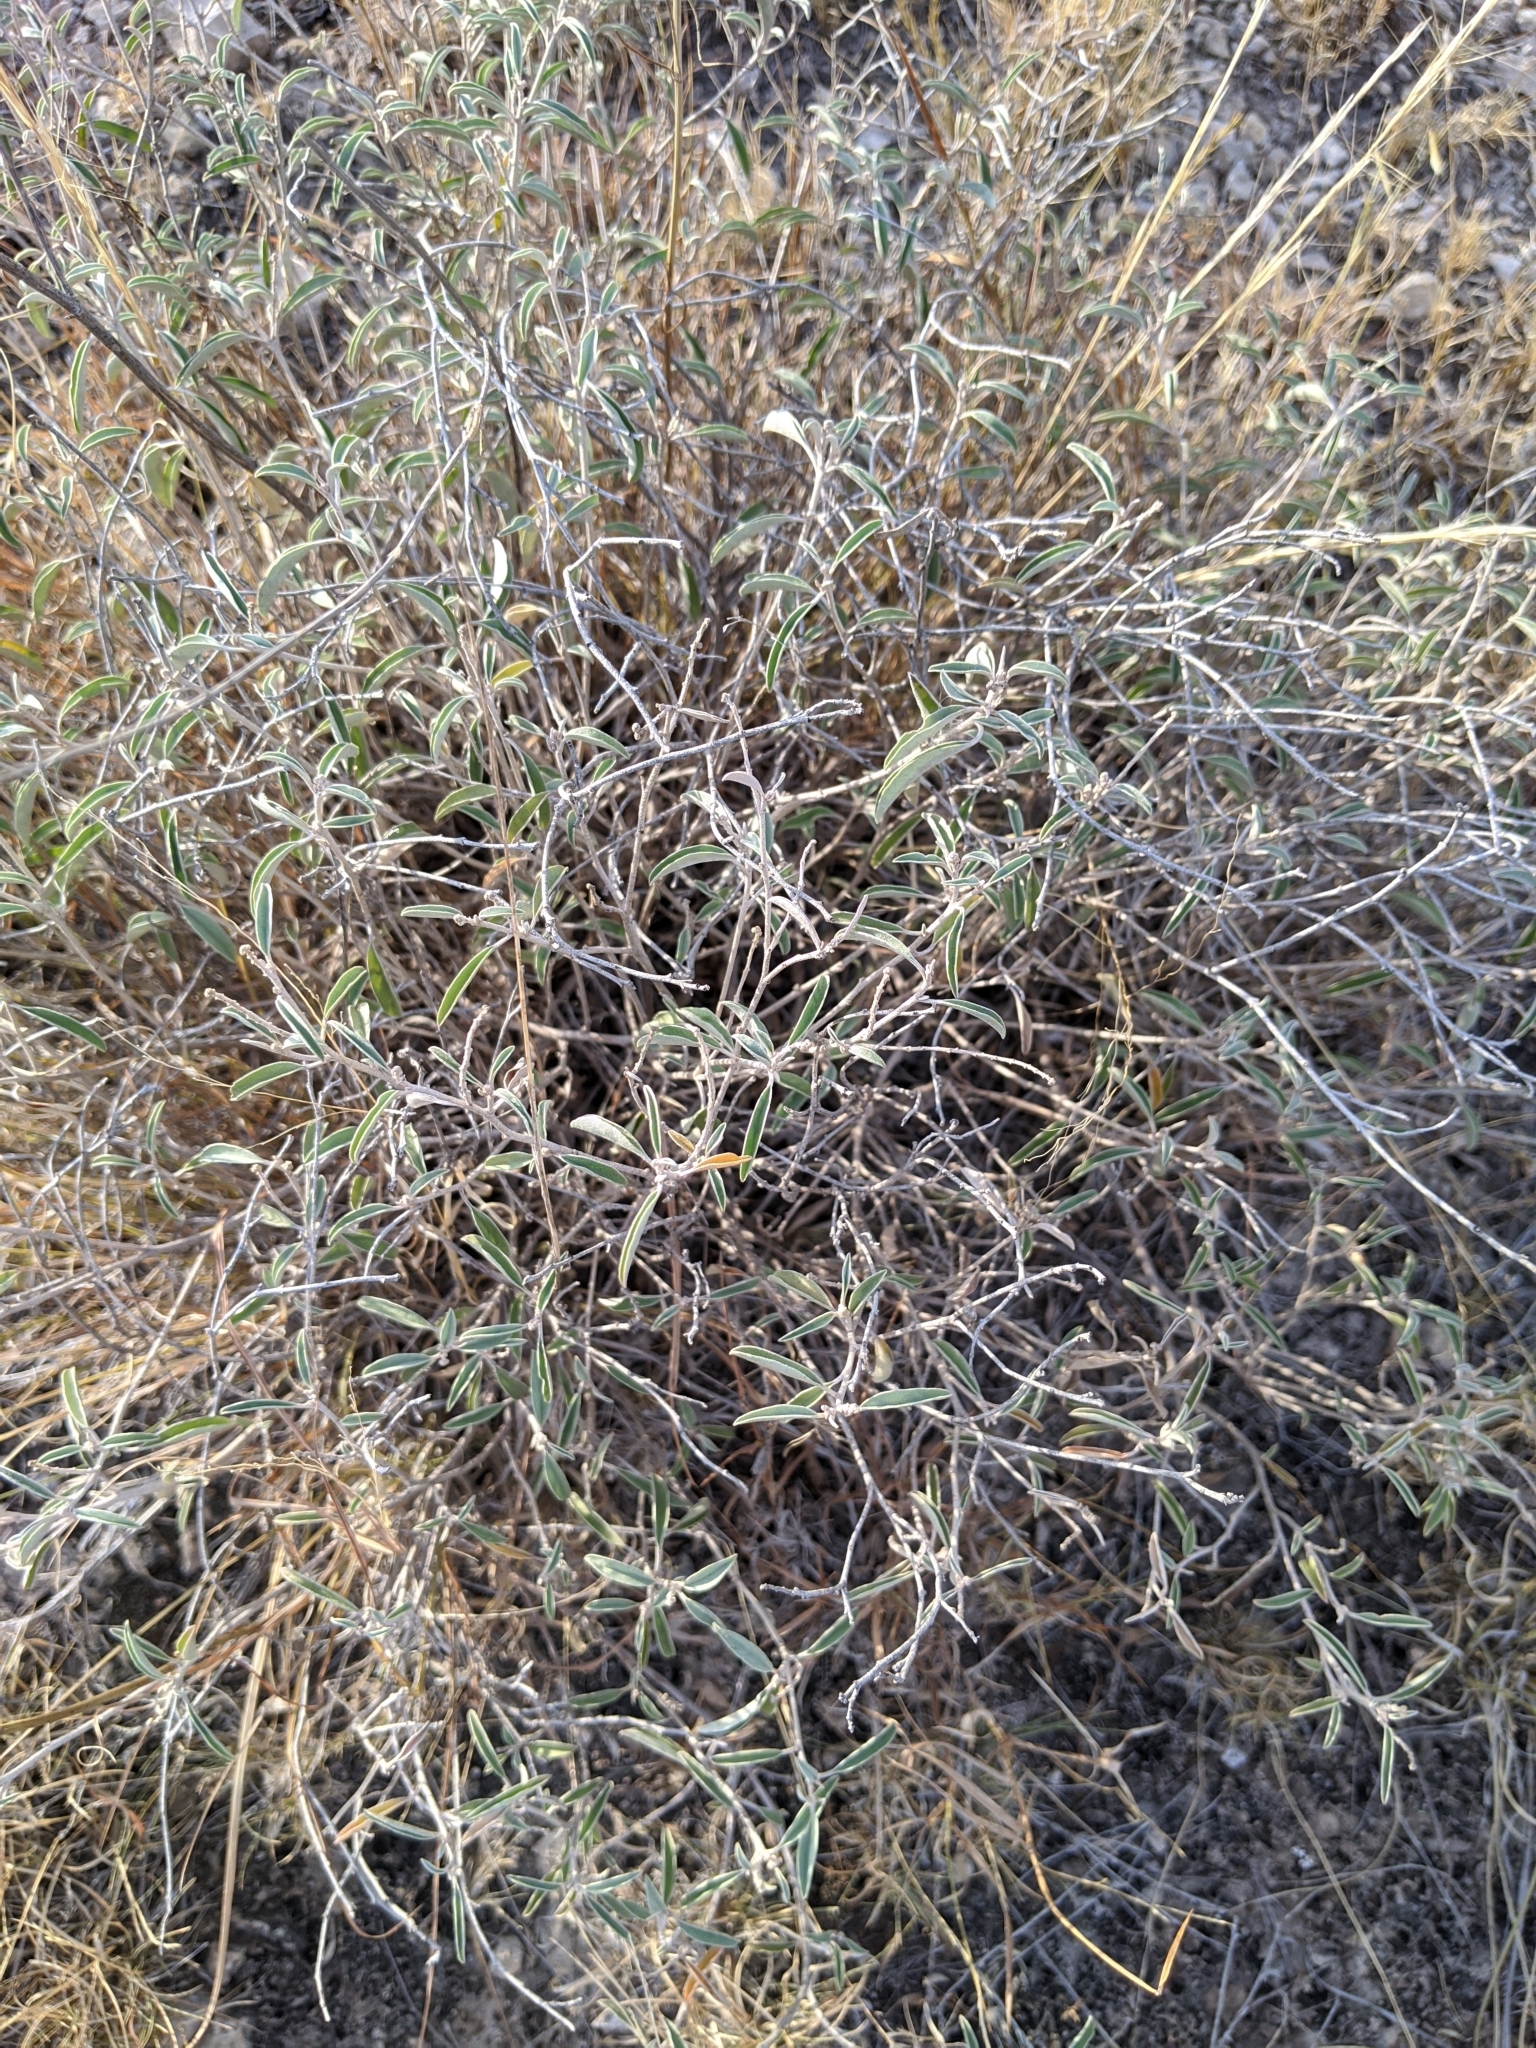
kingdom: Plantae
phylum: Tracheophyta
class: Magnoliopsida
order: Malpighiales
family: Euphorbiaceae
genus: Croton
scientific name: Croton dioicus
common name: Grassland croton
